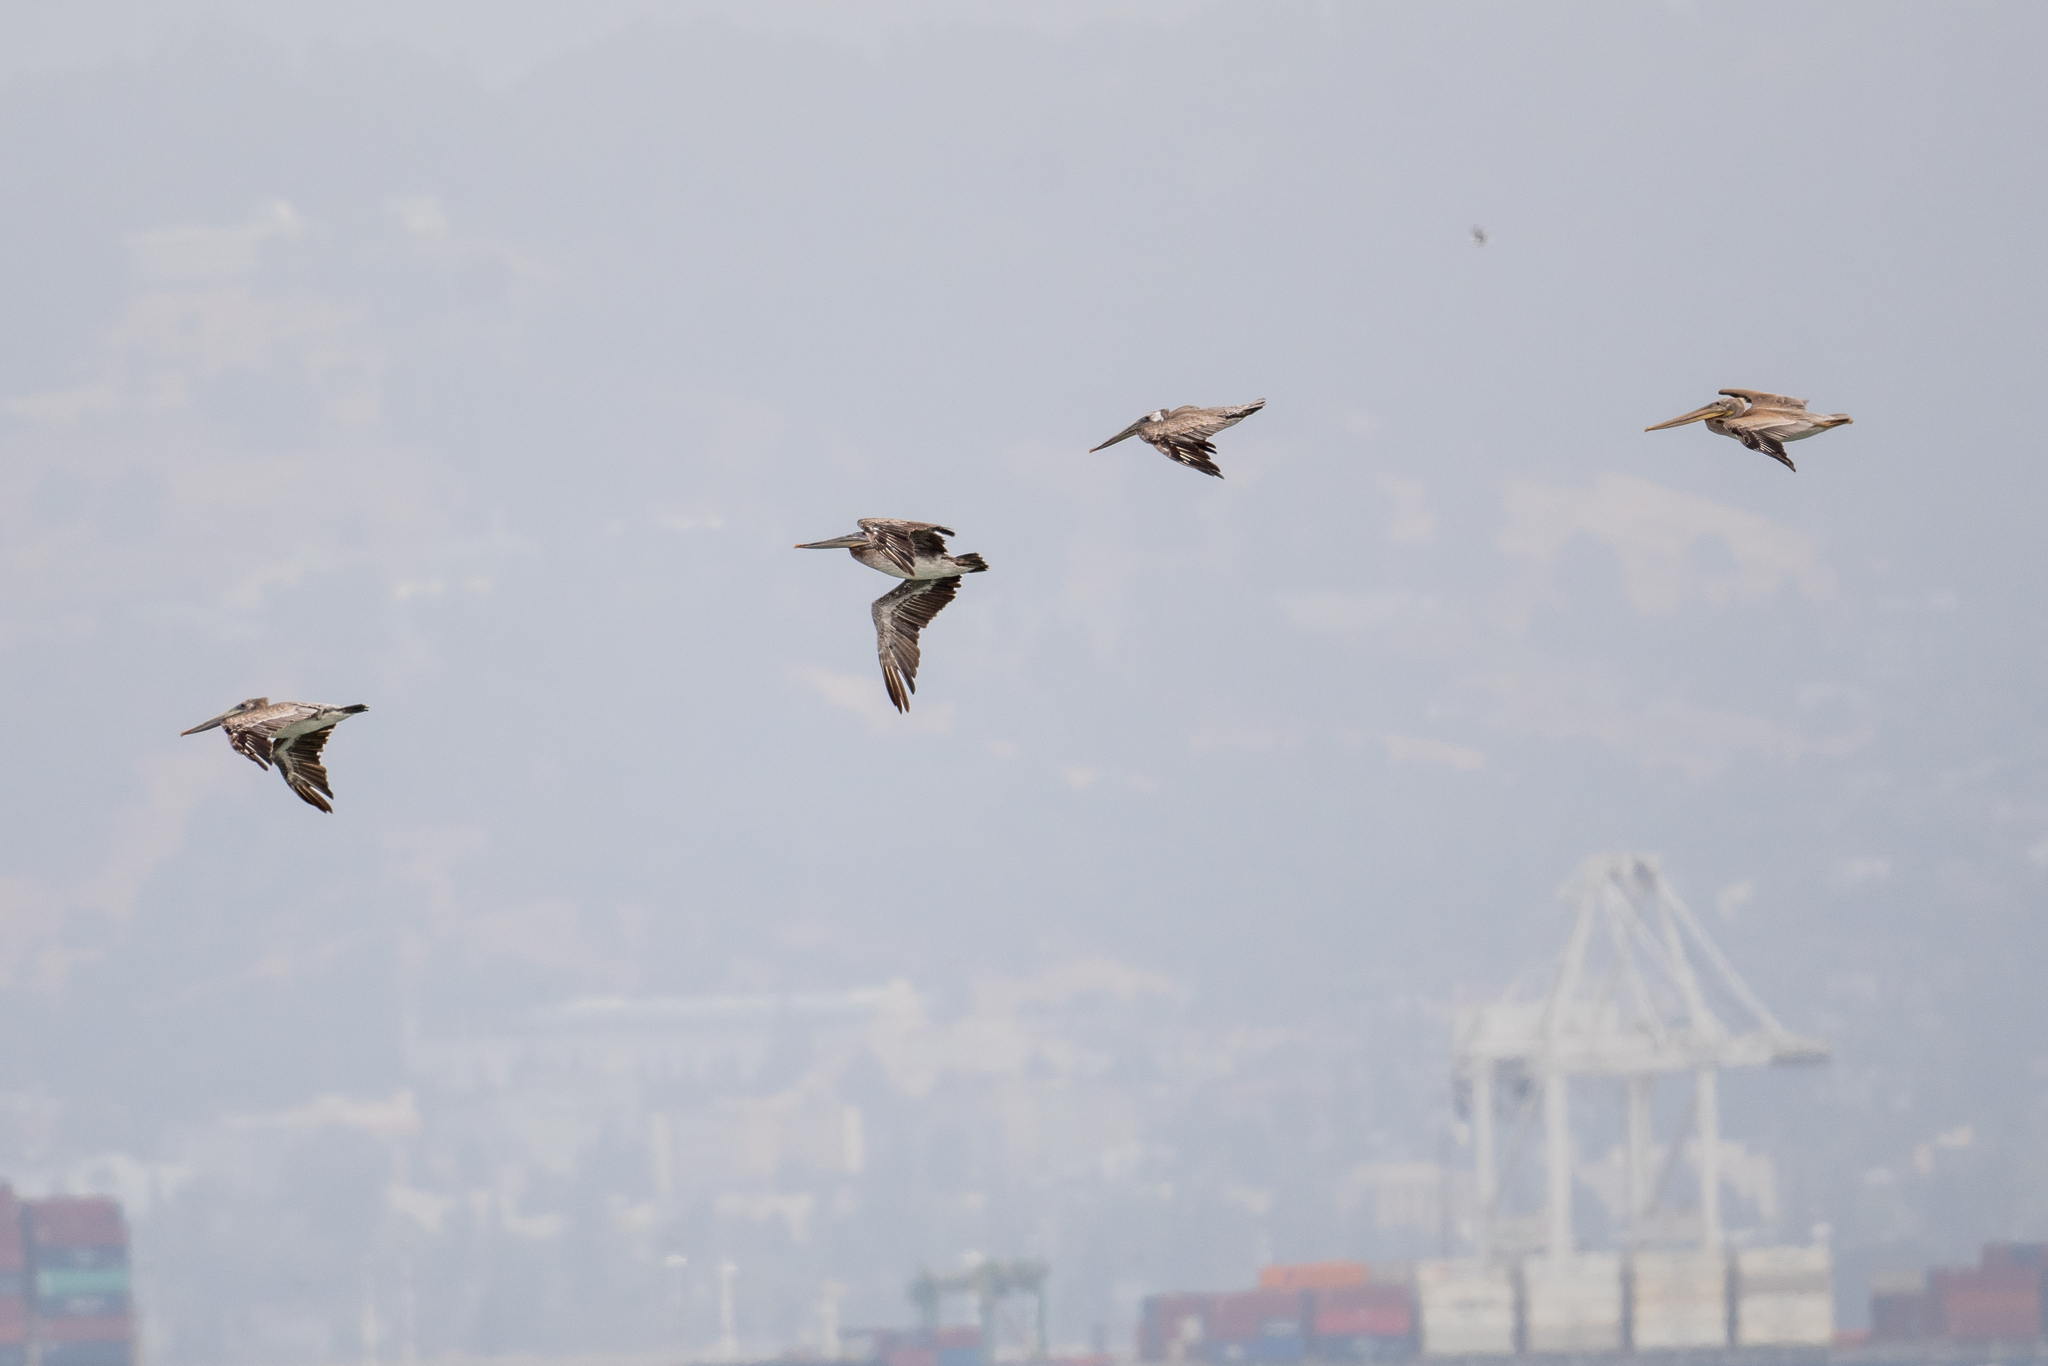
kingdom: Animalia
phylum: Chordata
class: Aves
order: Pelecaniformes
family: Pelecanidae
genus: Pelecanus
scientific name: Pelecanus occidentalis
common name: Brown pelican
